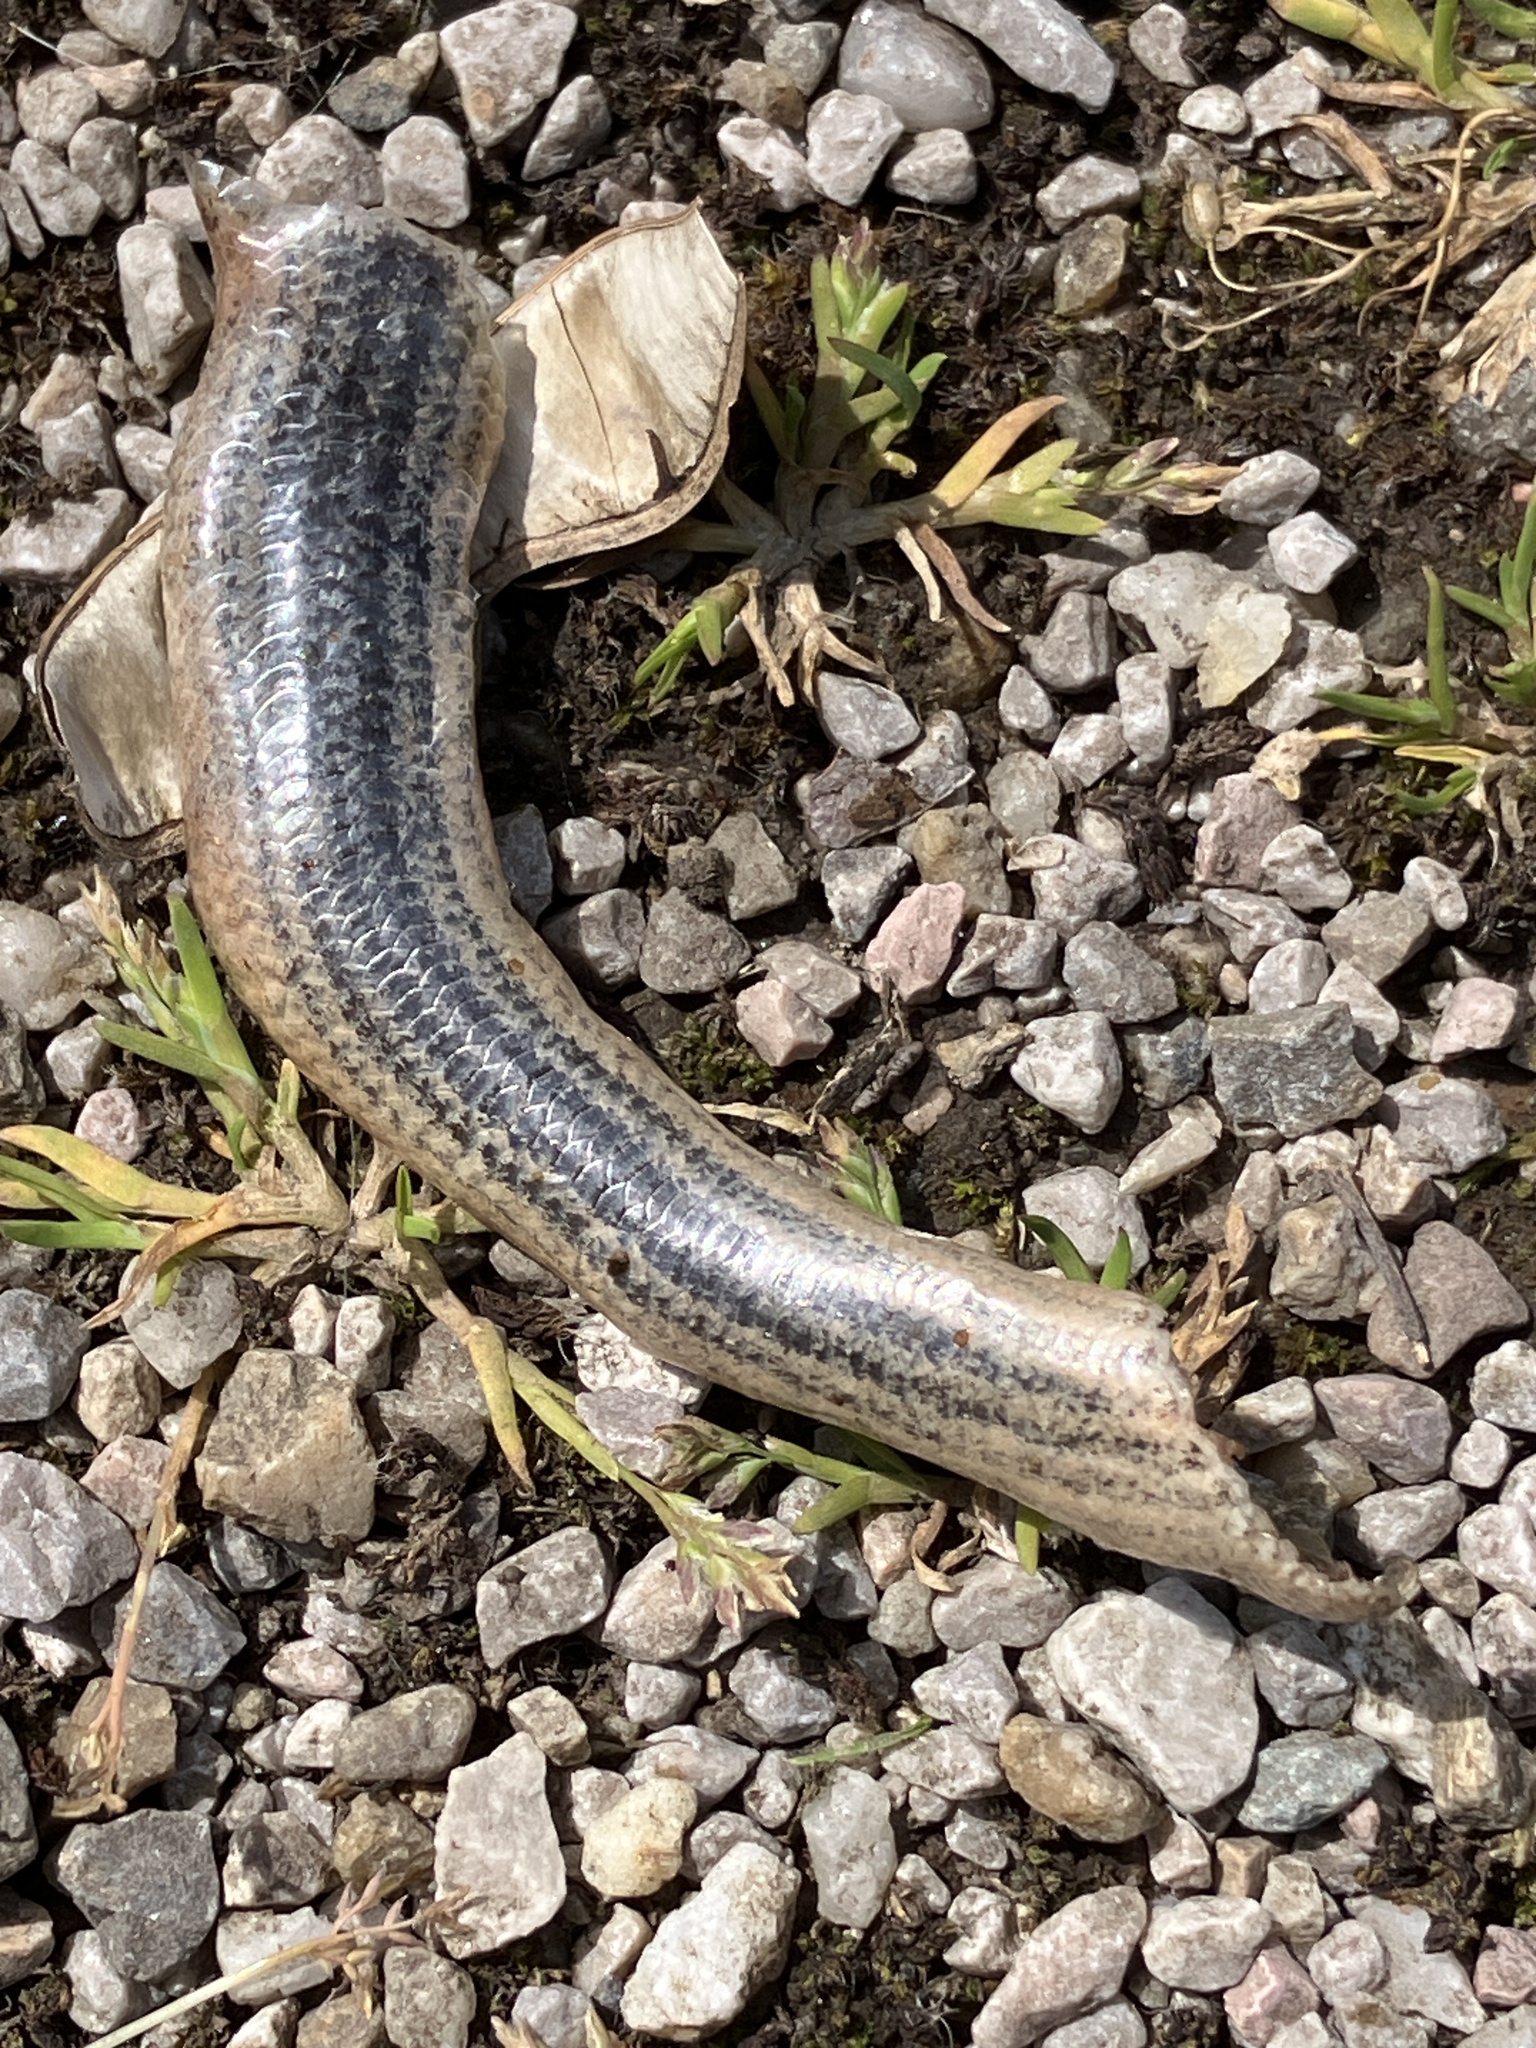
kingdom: Animalia
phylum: Chordata
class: Squamata
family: Anguidae
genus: Anguis
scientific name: Anguis fragilis
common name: Slow worm
